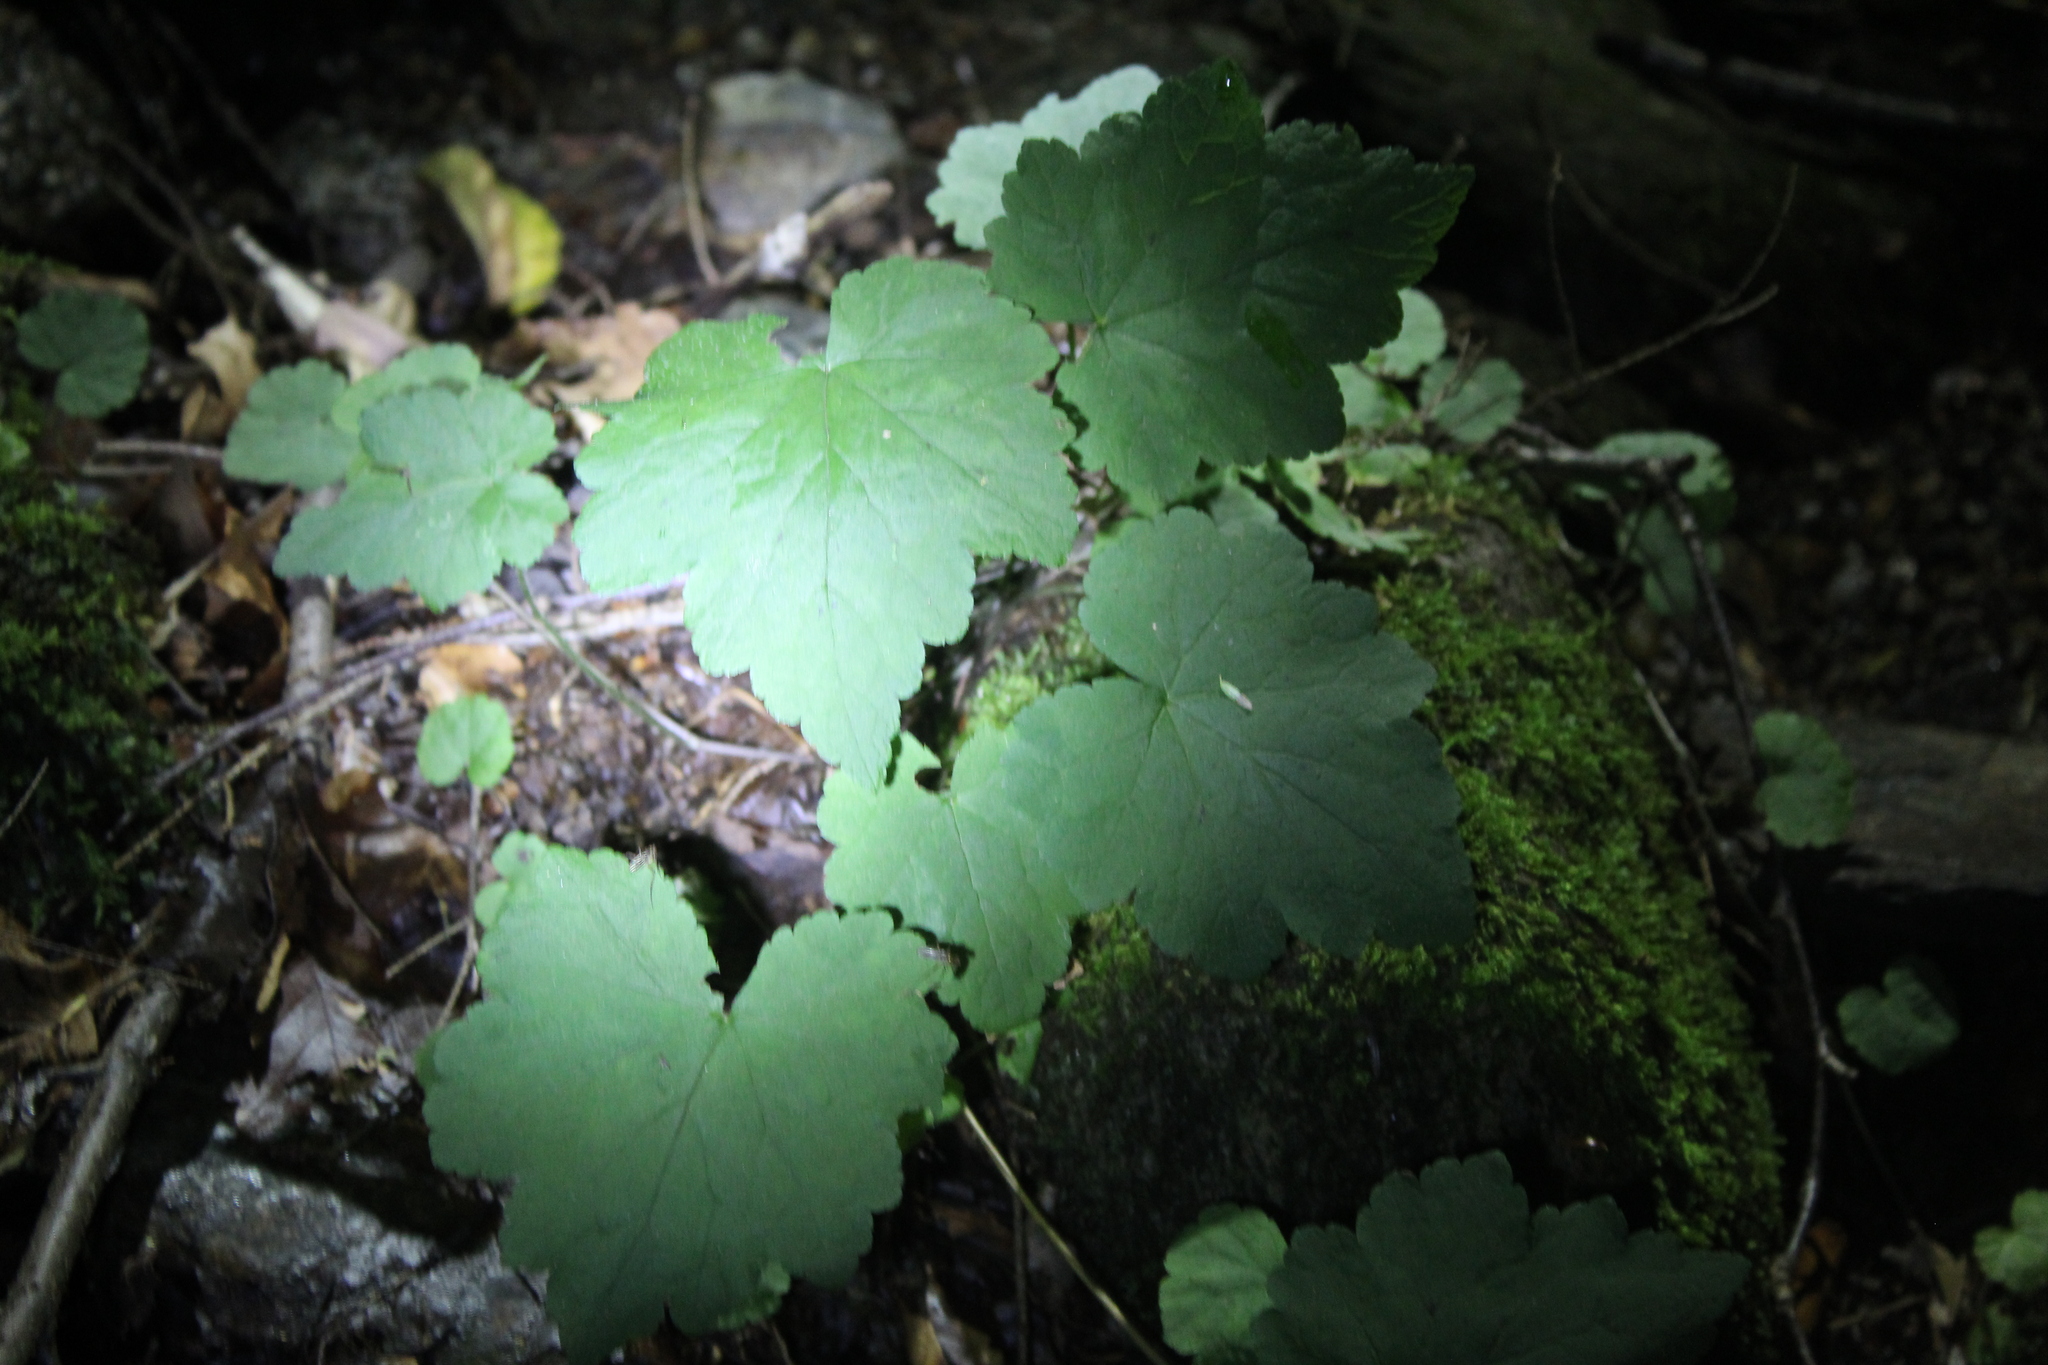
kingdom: Plantae
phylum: Tracheophyta
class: Magnoliopsida
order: Saxifragales
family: Saxifragaceae
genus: Tiarella
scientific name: Tiarella stolonifera
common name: Stoloniferous foamflower
